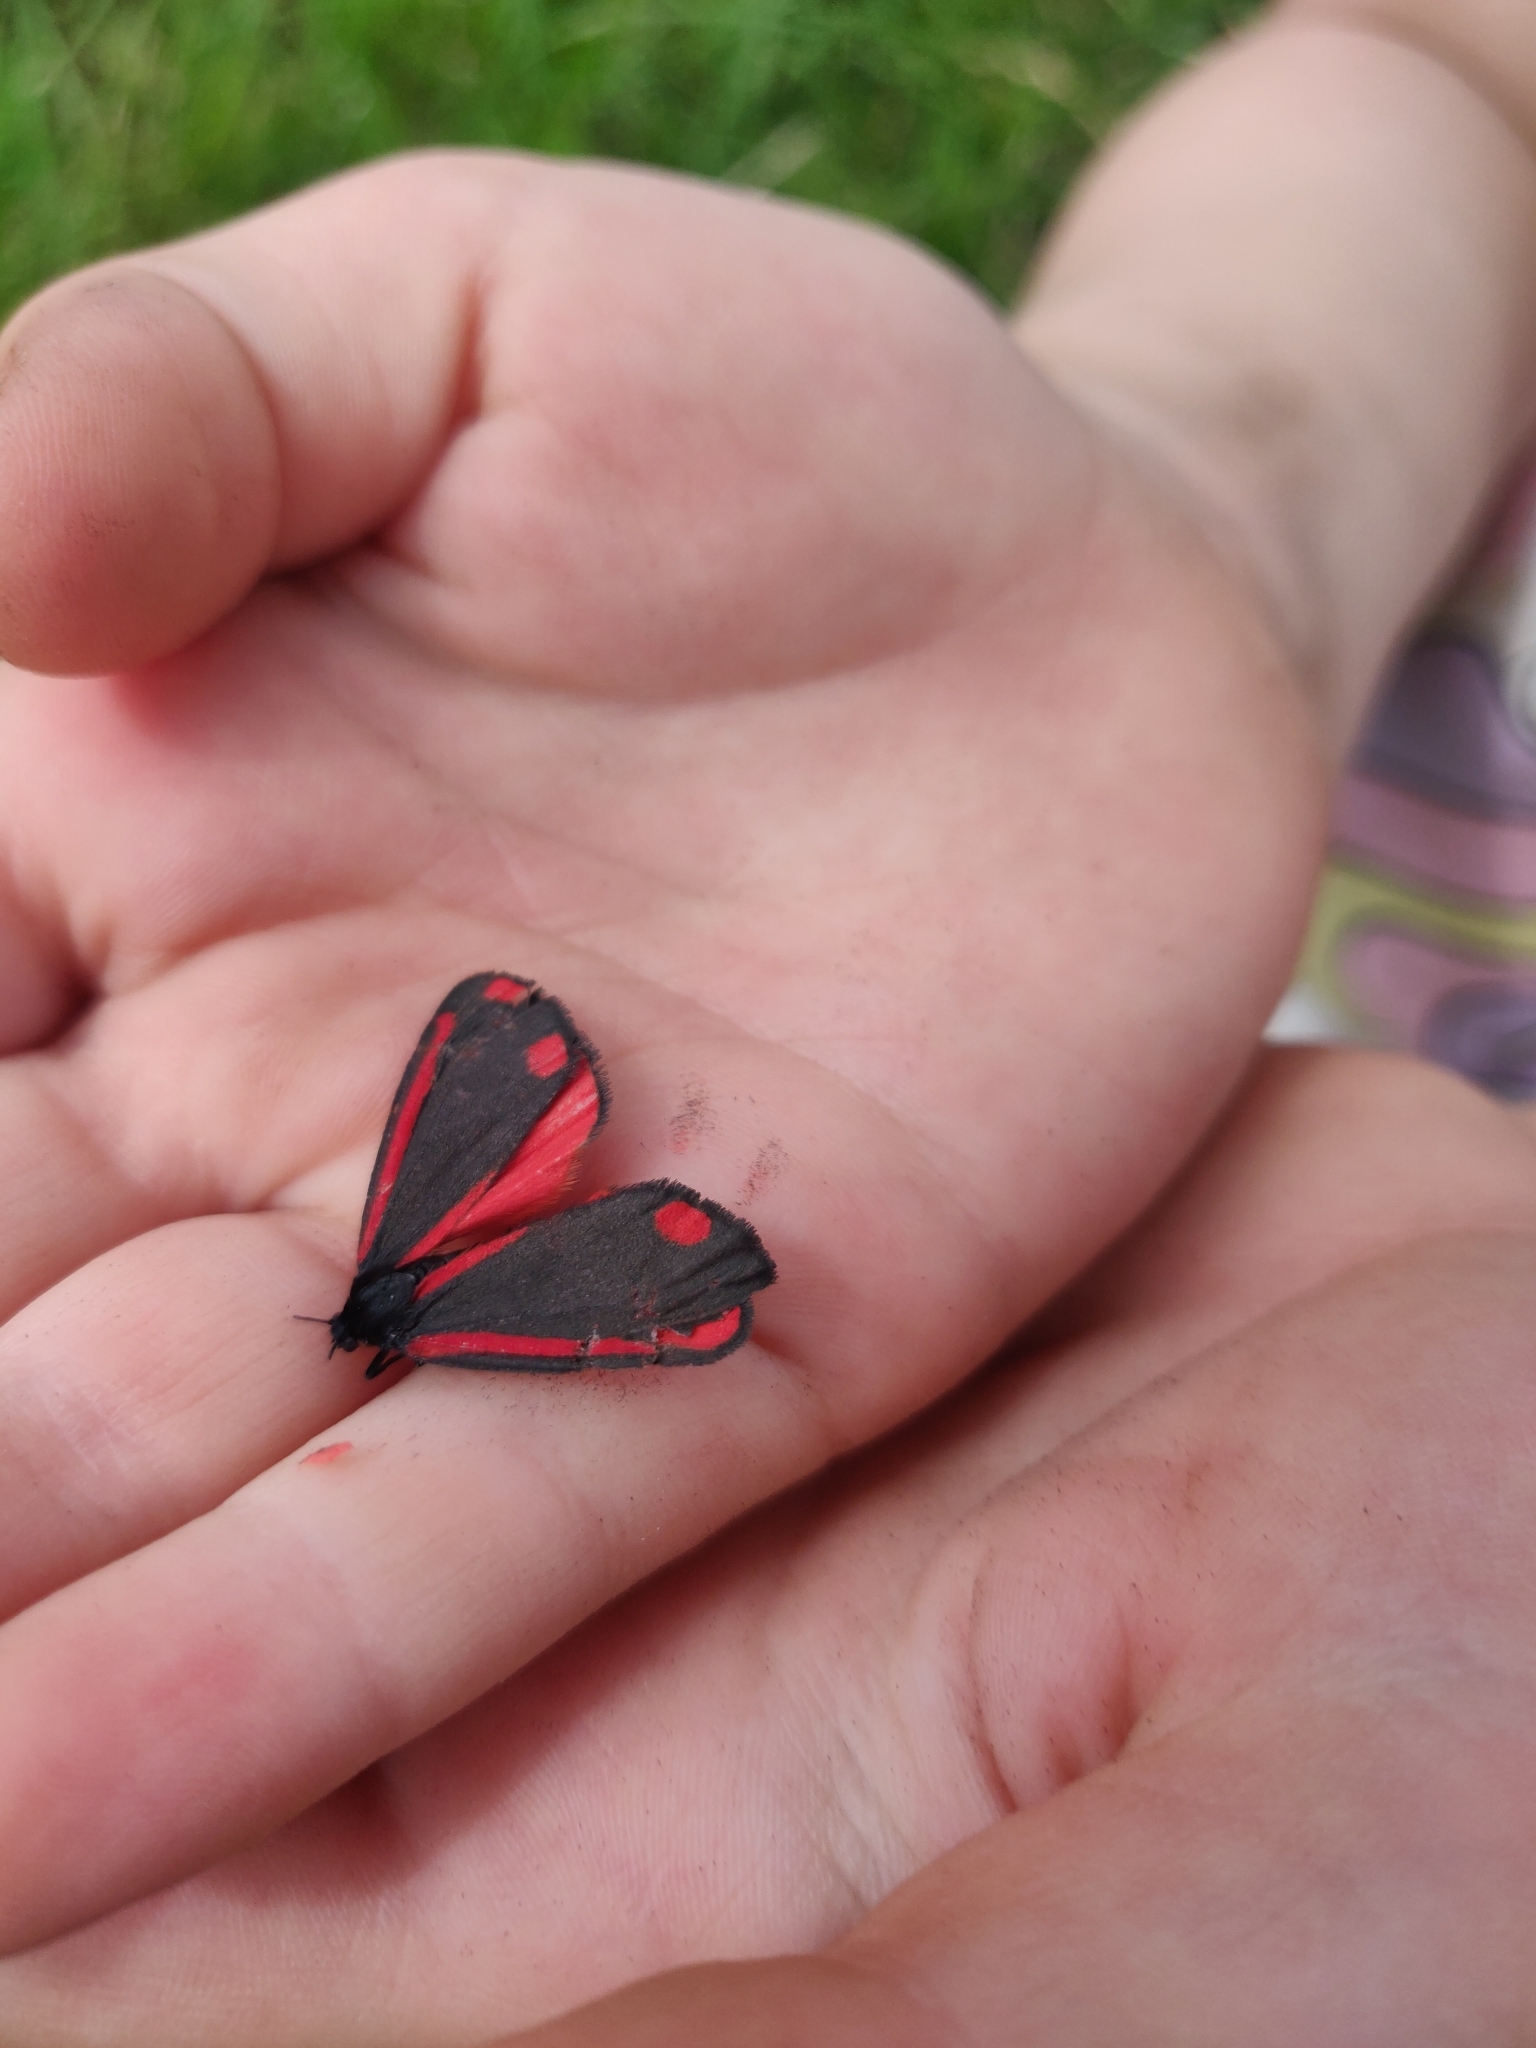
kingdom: Animalia
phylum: Arthropoda
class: Insecta
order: Lepidoptera
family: Erebidae
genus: Tyria
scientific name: Tyria jacobaeae
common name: Cinnabar
